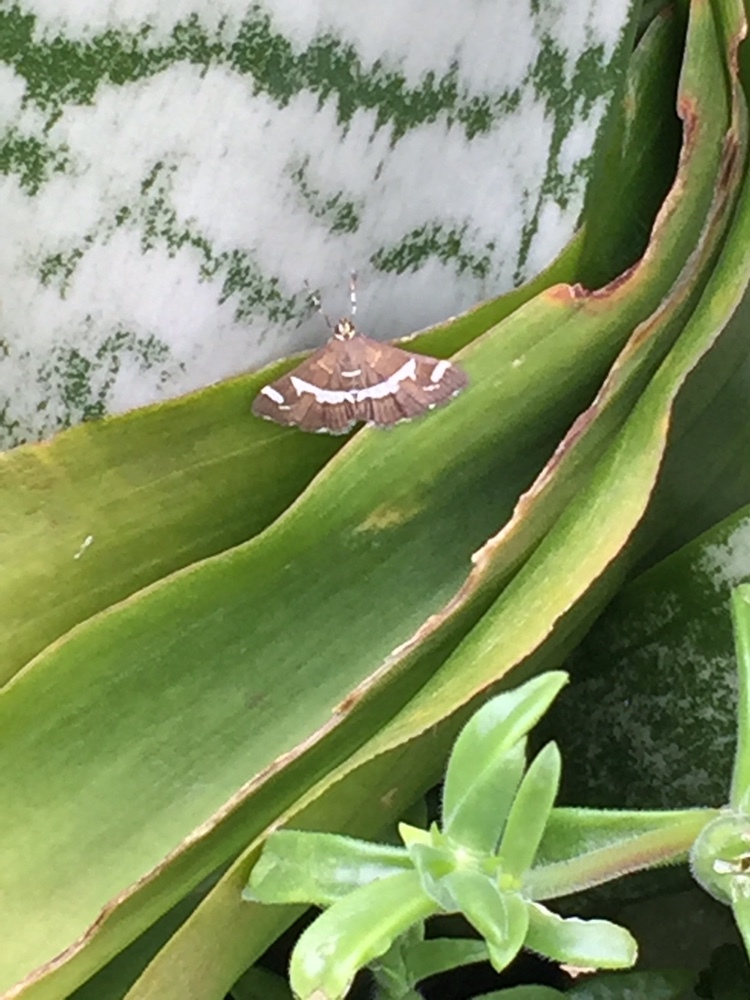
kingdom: Animalia
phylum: Arthropoda
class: Insecta
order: Lepidoptera
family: Crambidae
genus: Spoladea
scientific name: Spoladea recurvalis
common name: Beet webworm moth
